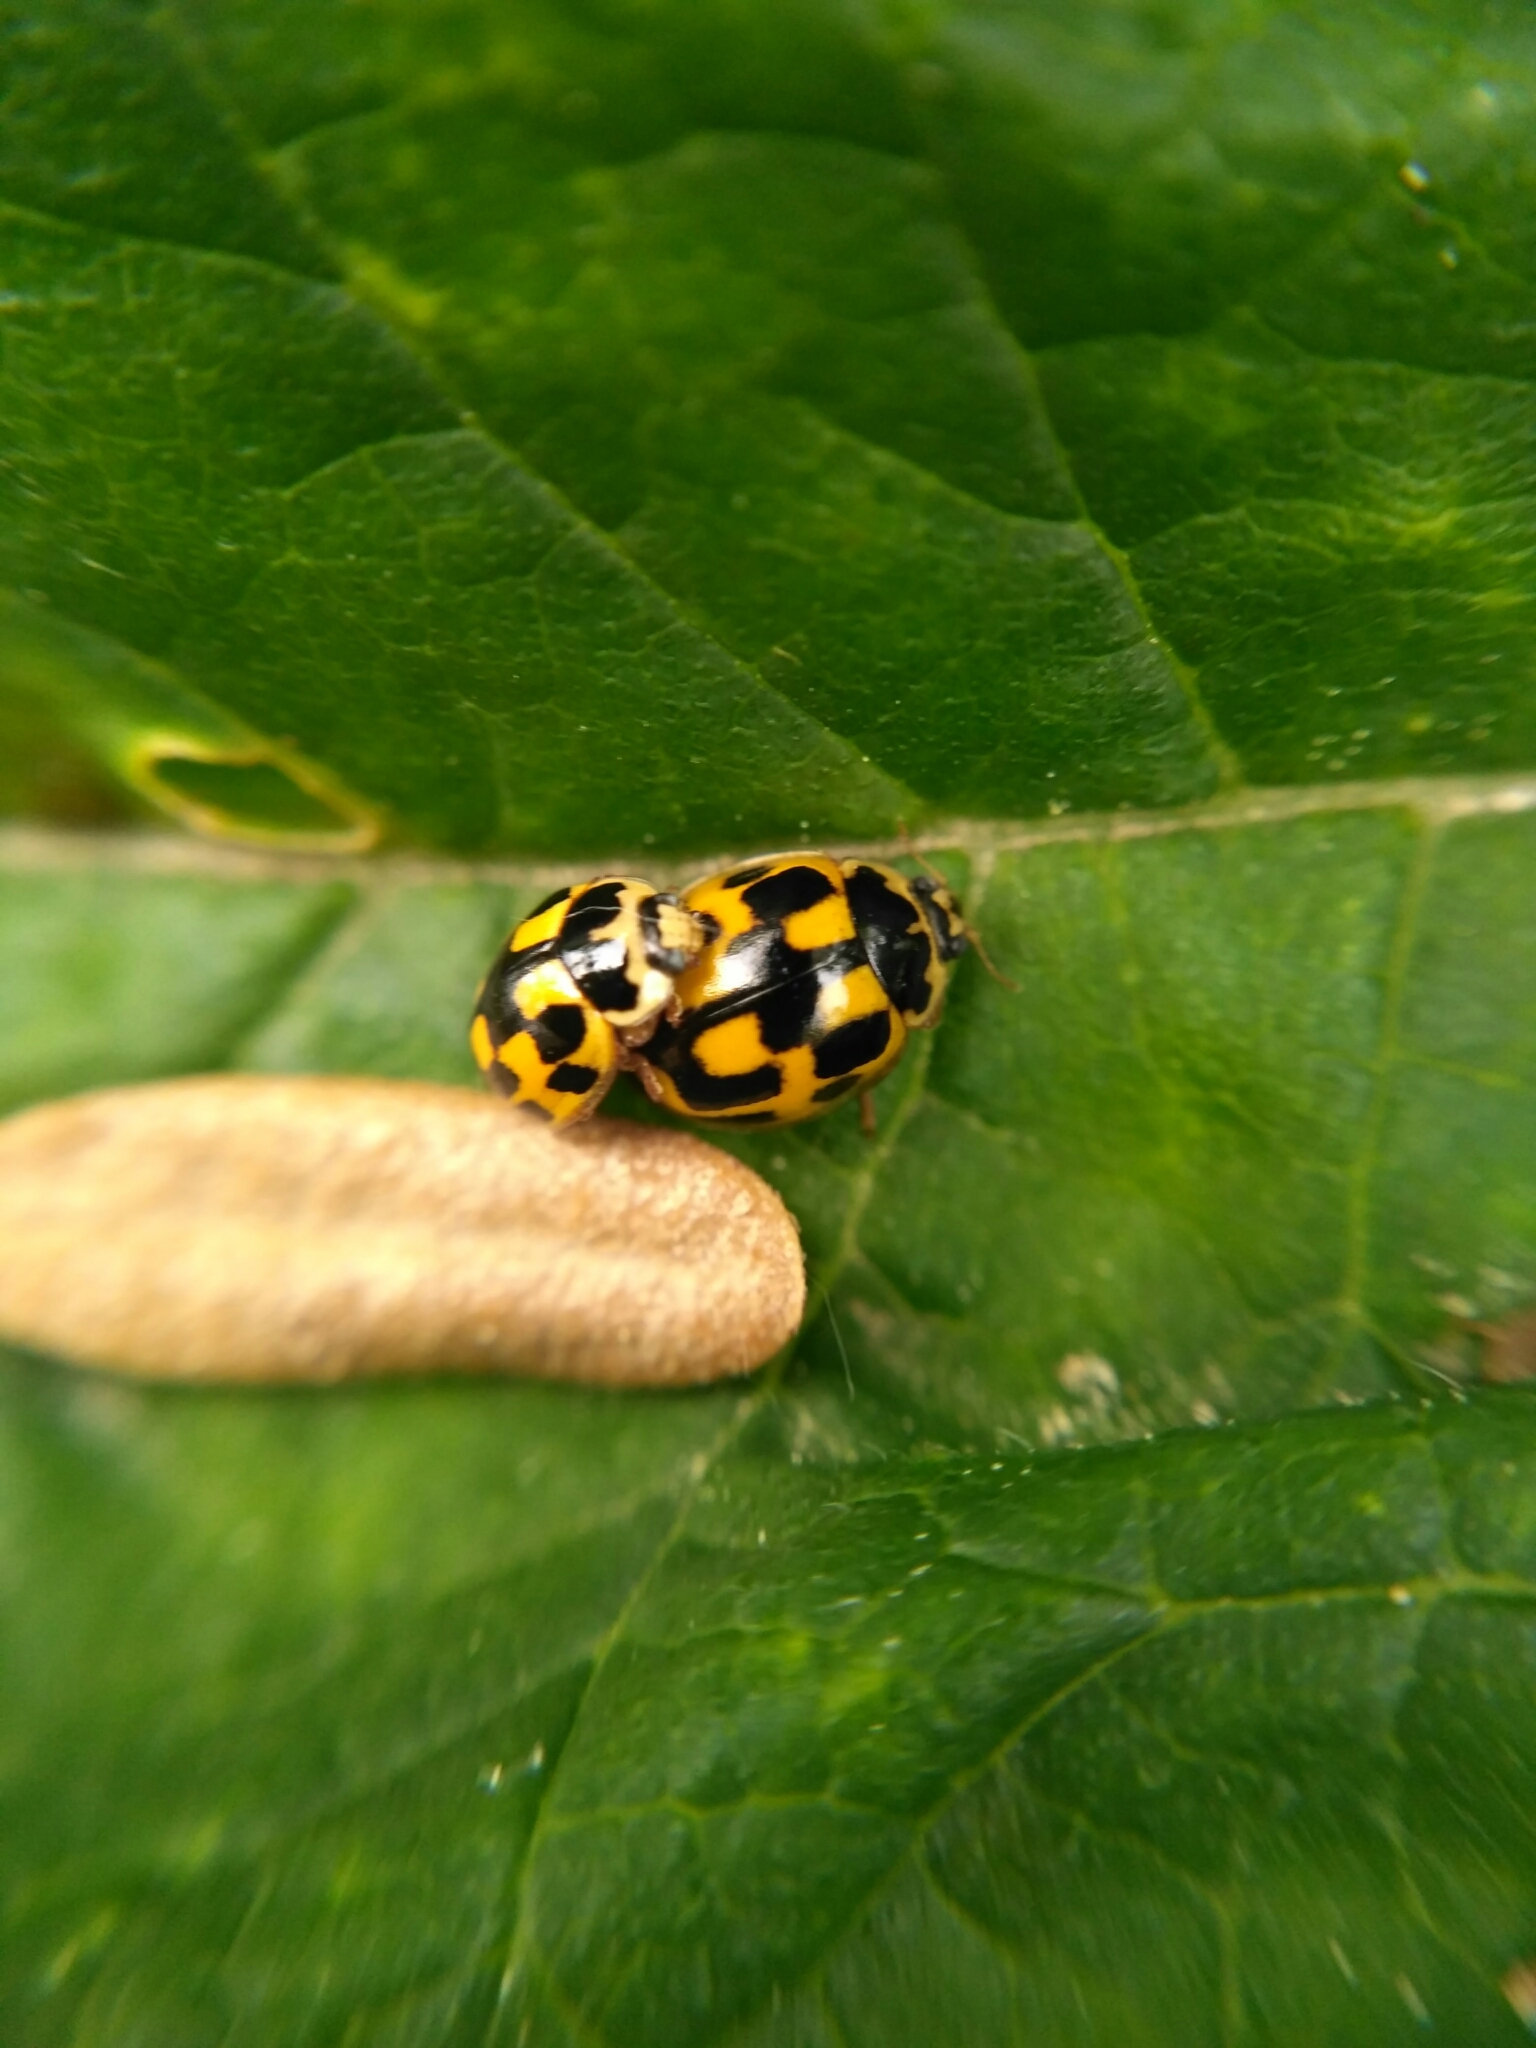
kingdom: Animalia
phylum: Arthropoda
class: Insecta
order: Coleoptera
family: Coccinellidae
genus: Propylaea
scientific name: Propylaea quatuordecimpunctata
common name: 14-spotted ladybird beetle
